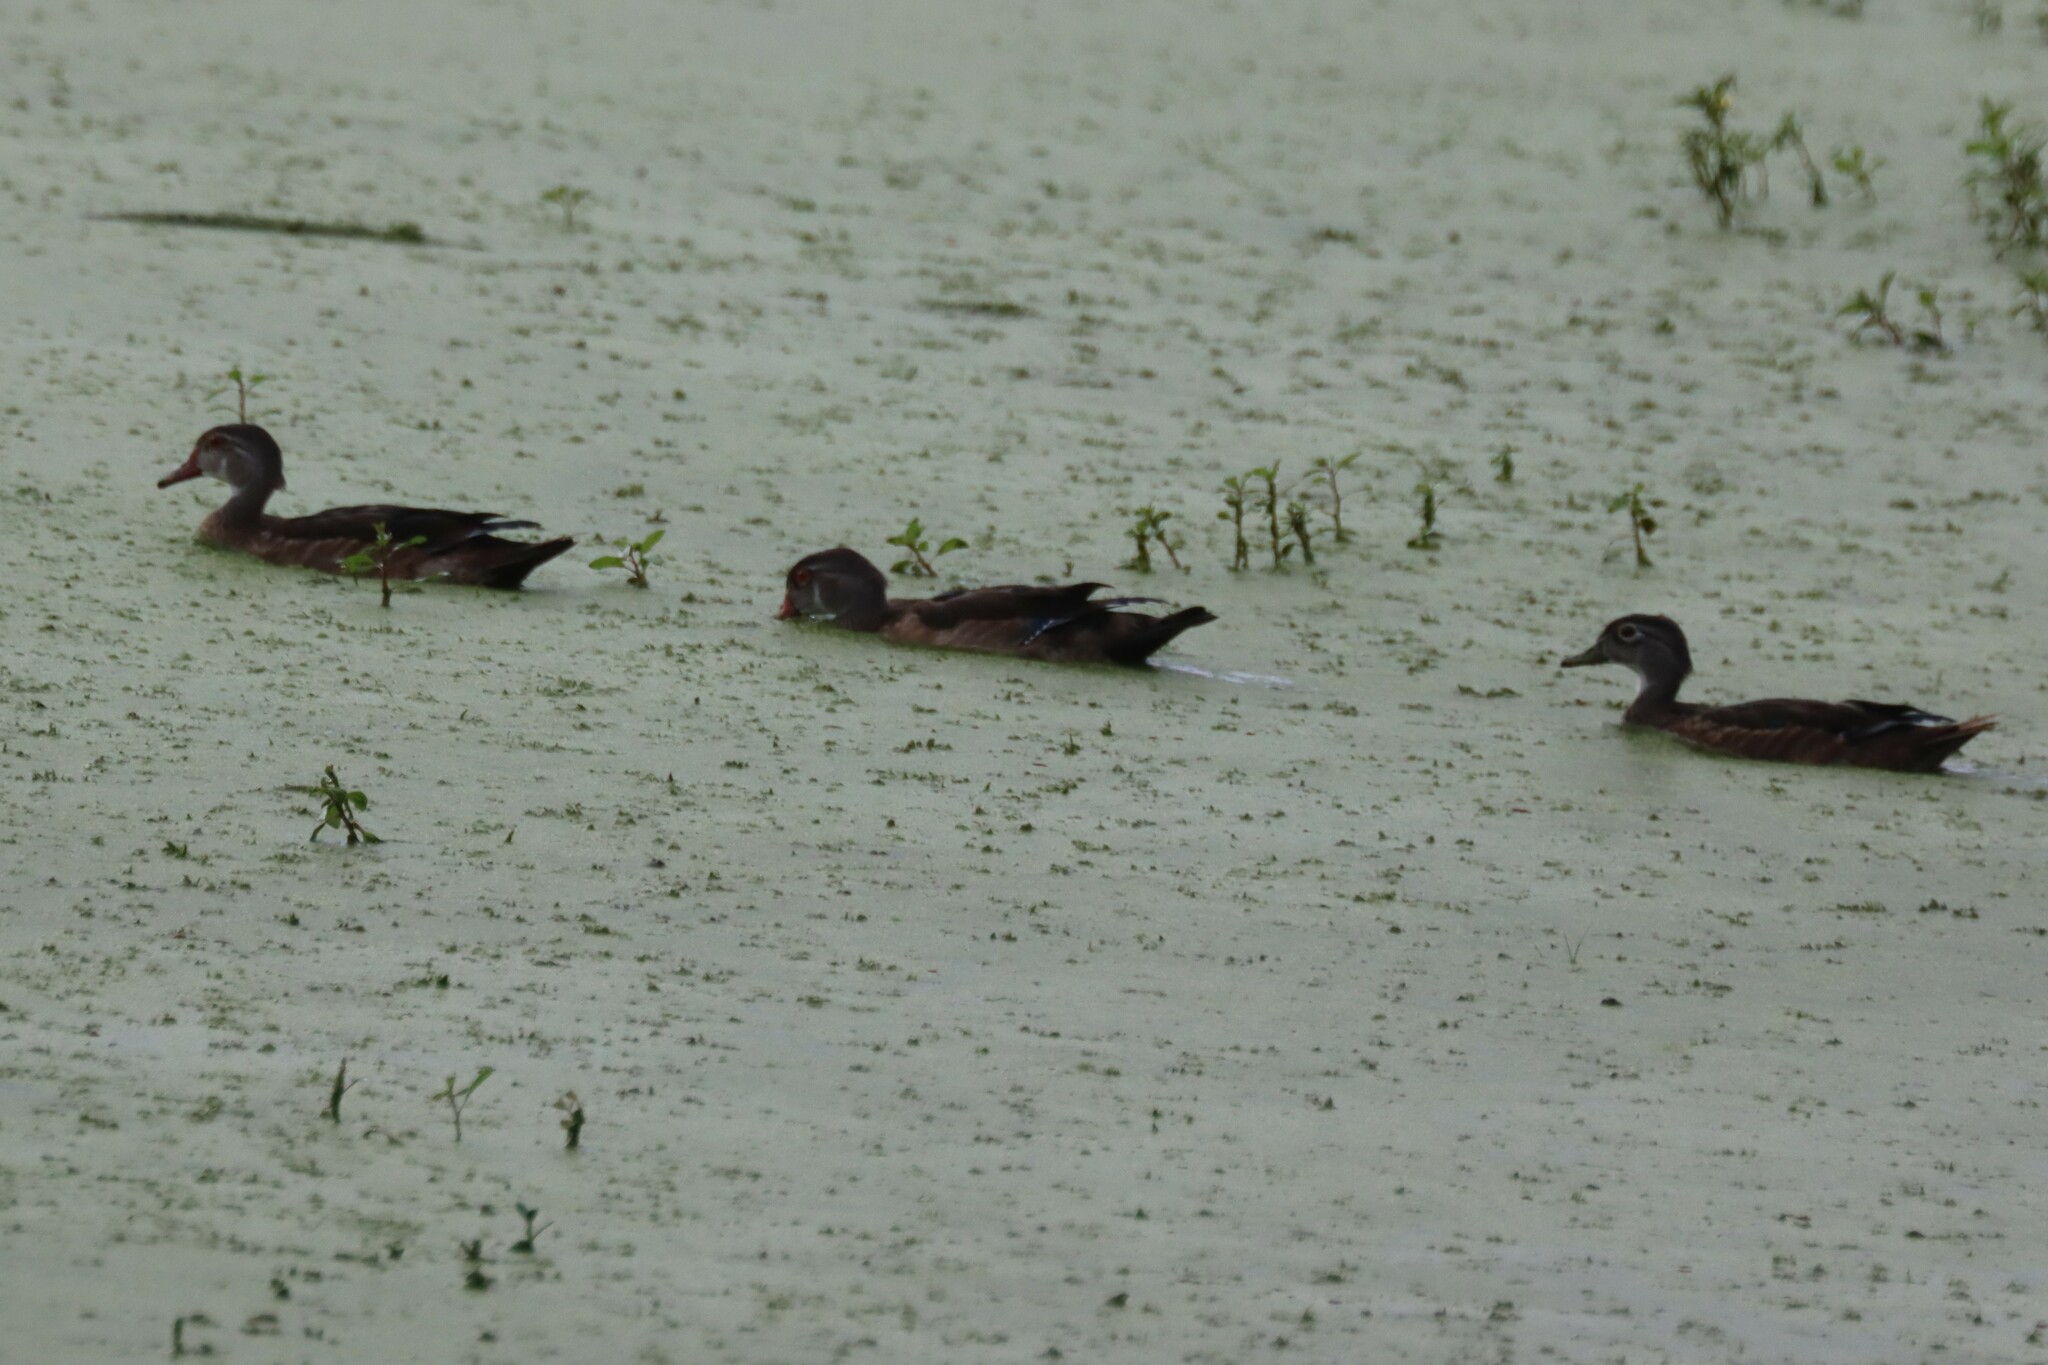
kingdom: Animalia
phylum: Chordata
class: Aves
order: Anseriformes
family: Anatidae
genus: Aix
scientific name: Aix sponsa
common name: Wood duck
